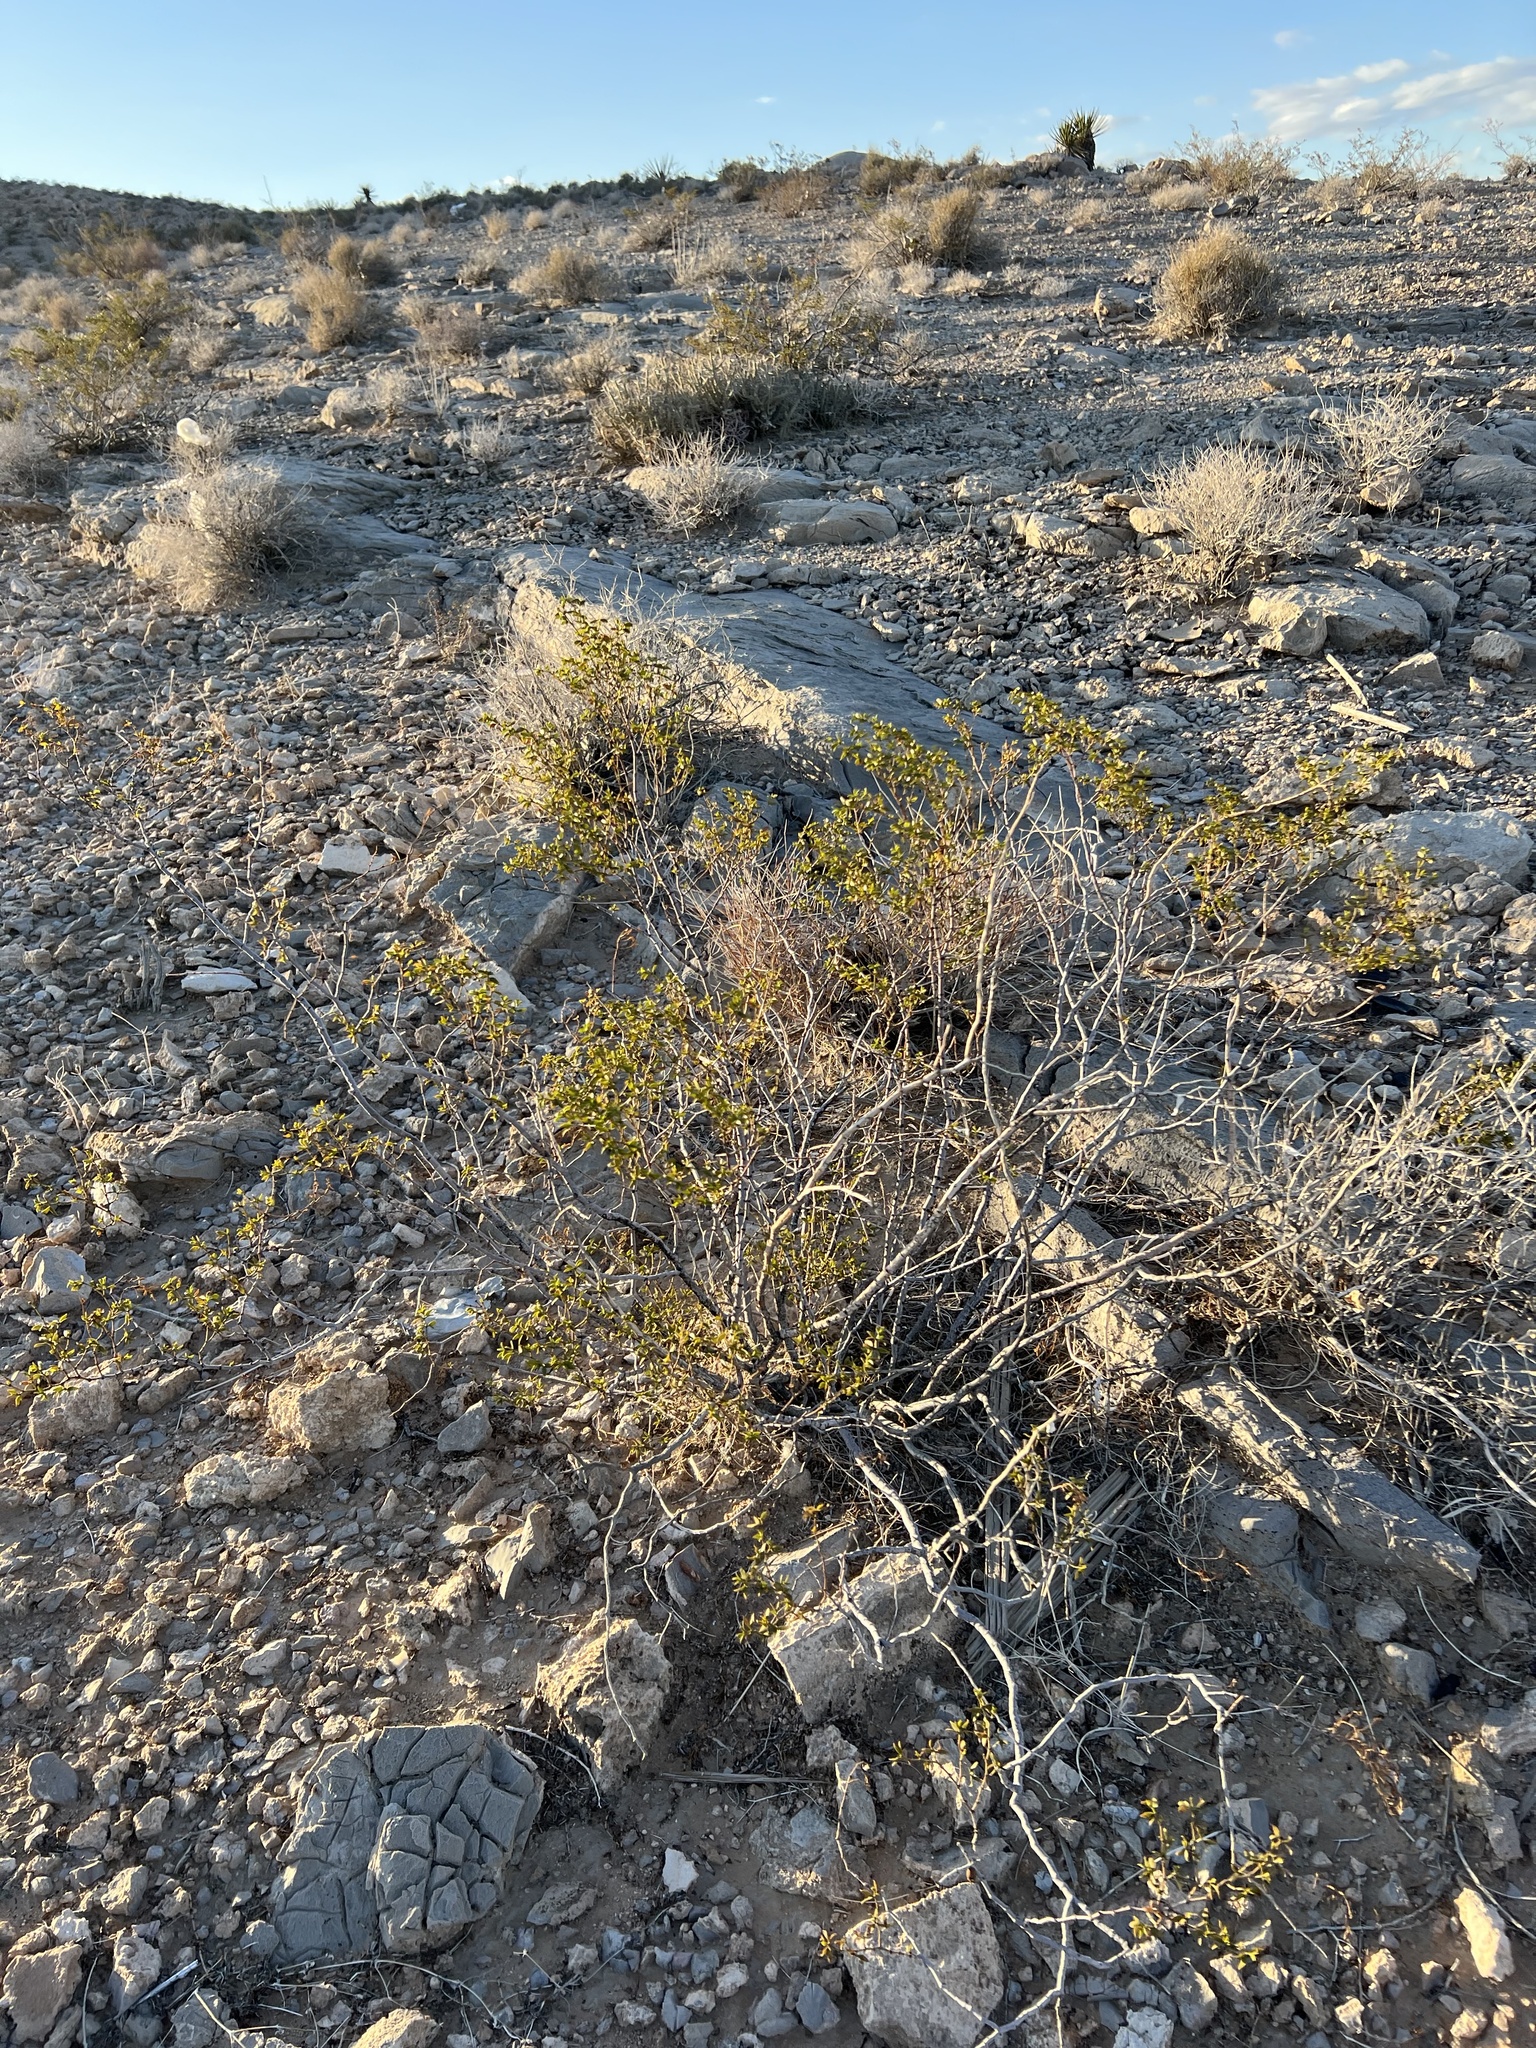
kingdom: Plantae
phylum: Tracheophyta
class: Magnoliopsida
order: Zygophyllales
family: Zygophyllaceae
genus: Larrea
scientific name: Larrea tridentata
